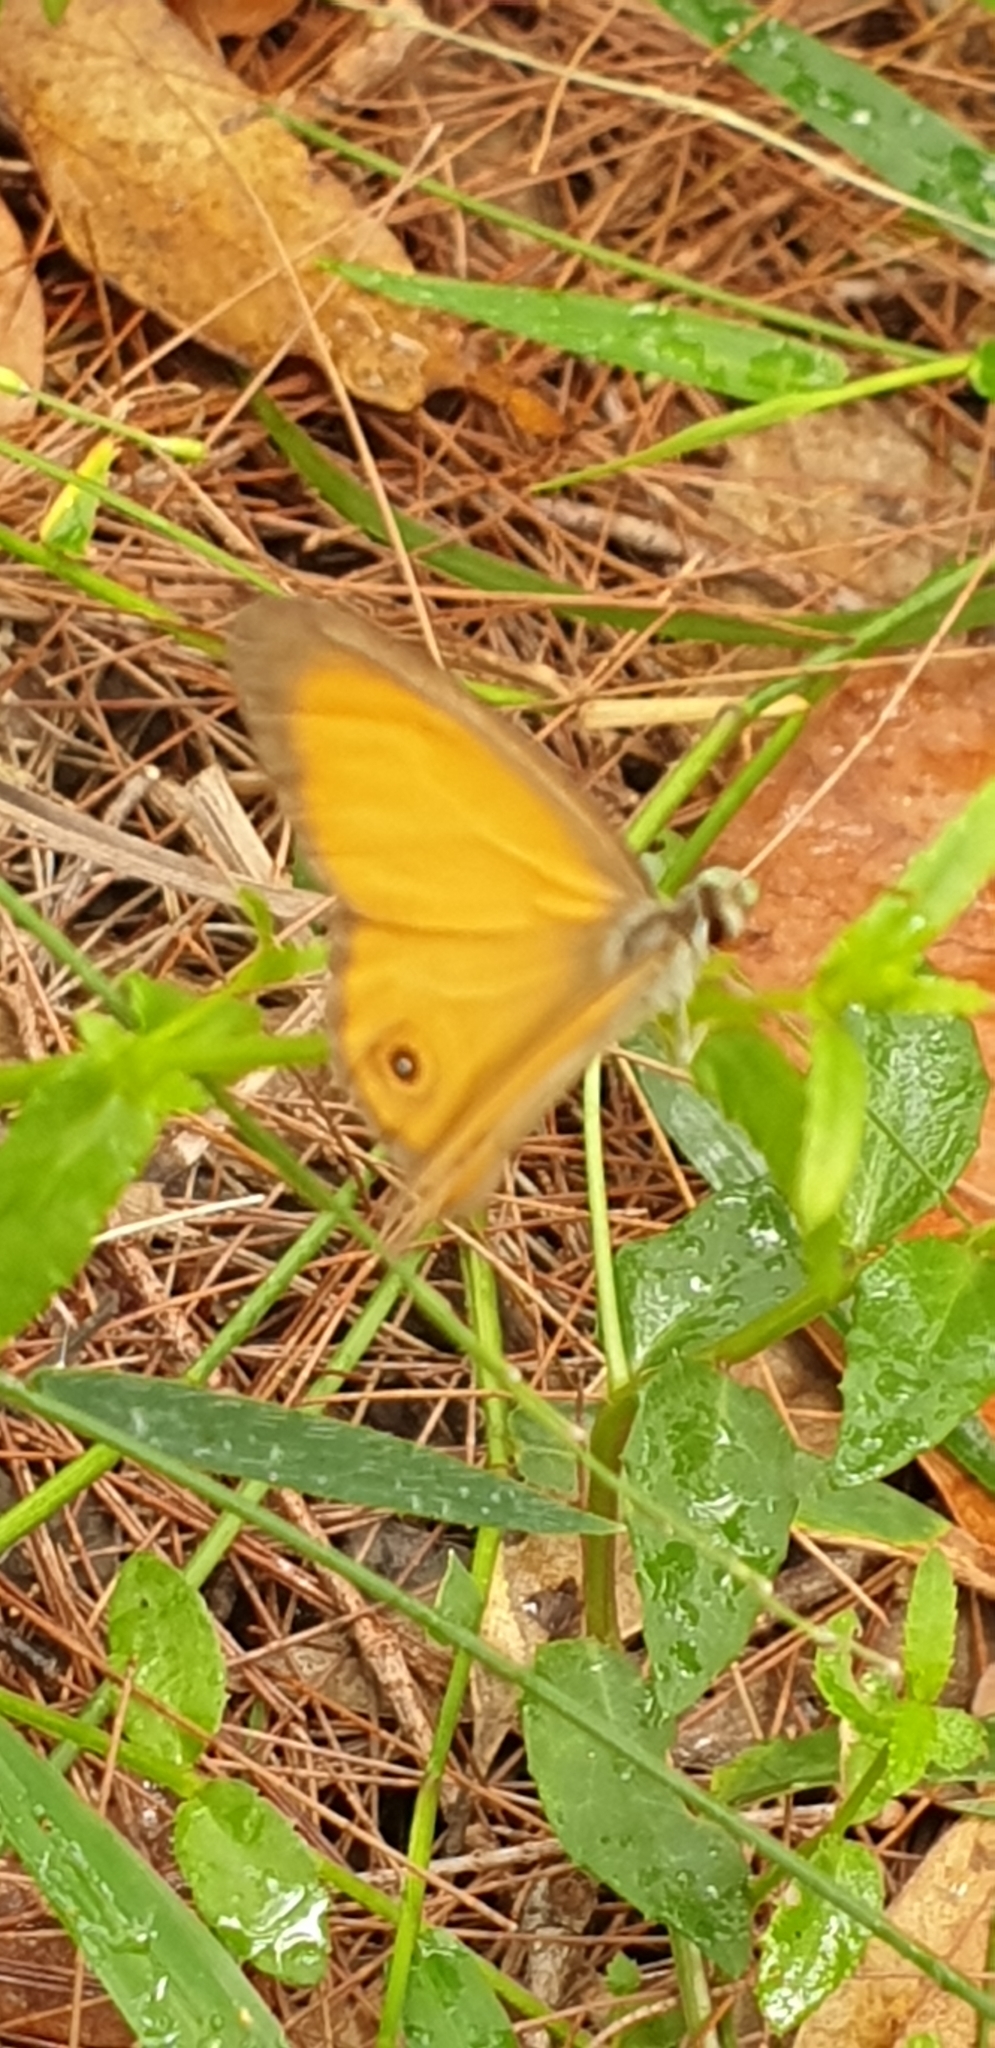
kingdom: Animalia
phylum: Arthropoda
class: Insecta
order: Lepidoptera
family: Nymphalidae
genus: Hypocysta
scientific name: Hypocysta adiante
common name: Orange ringlet
